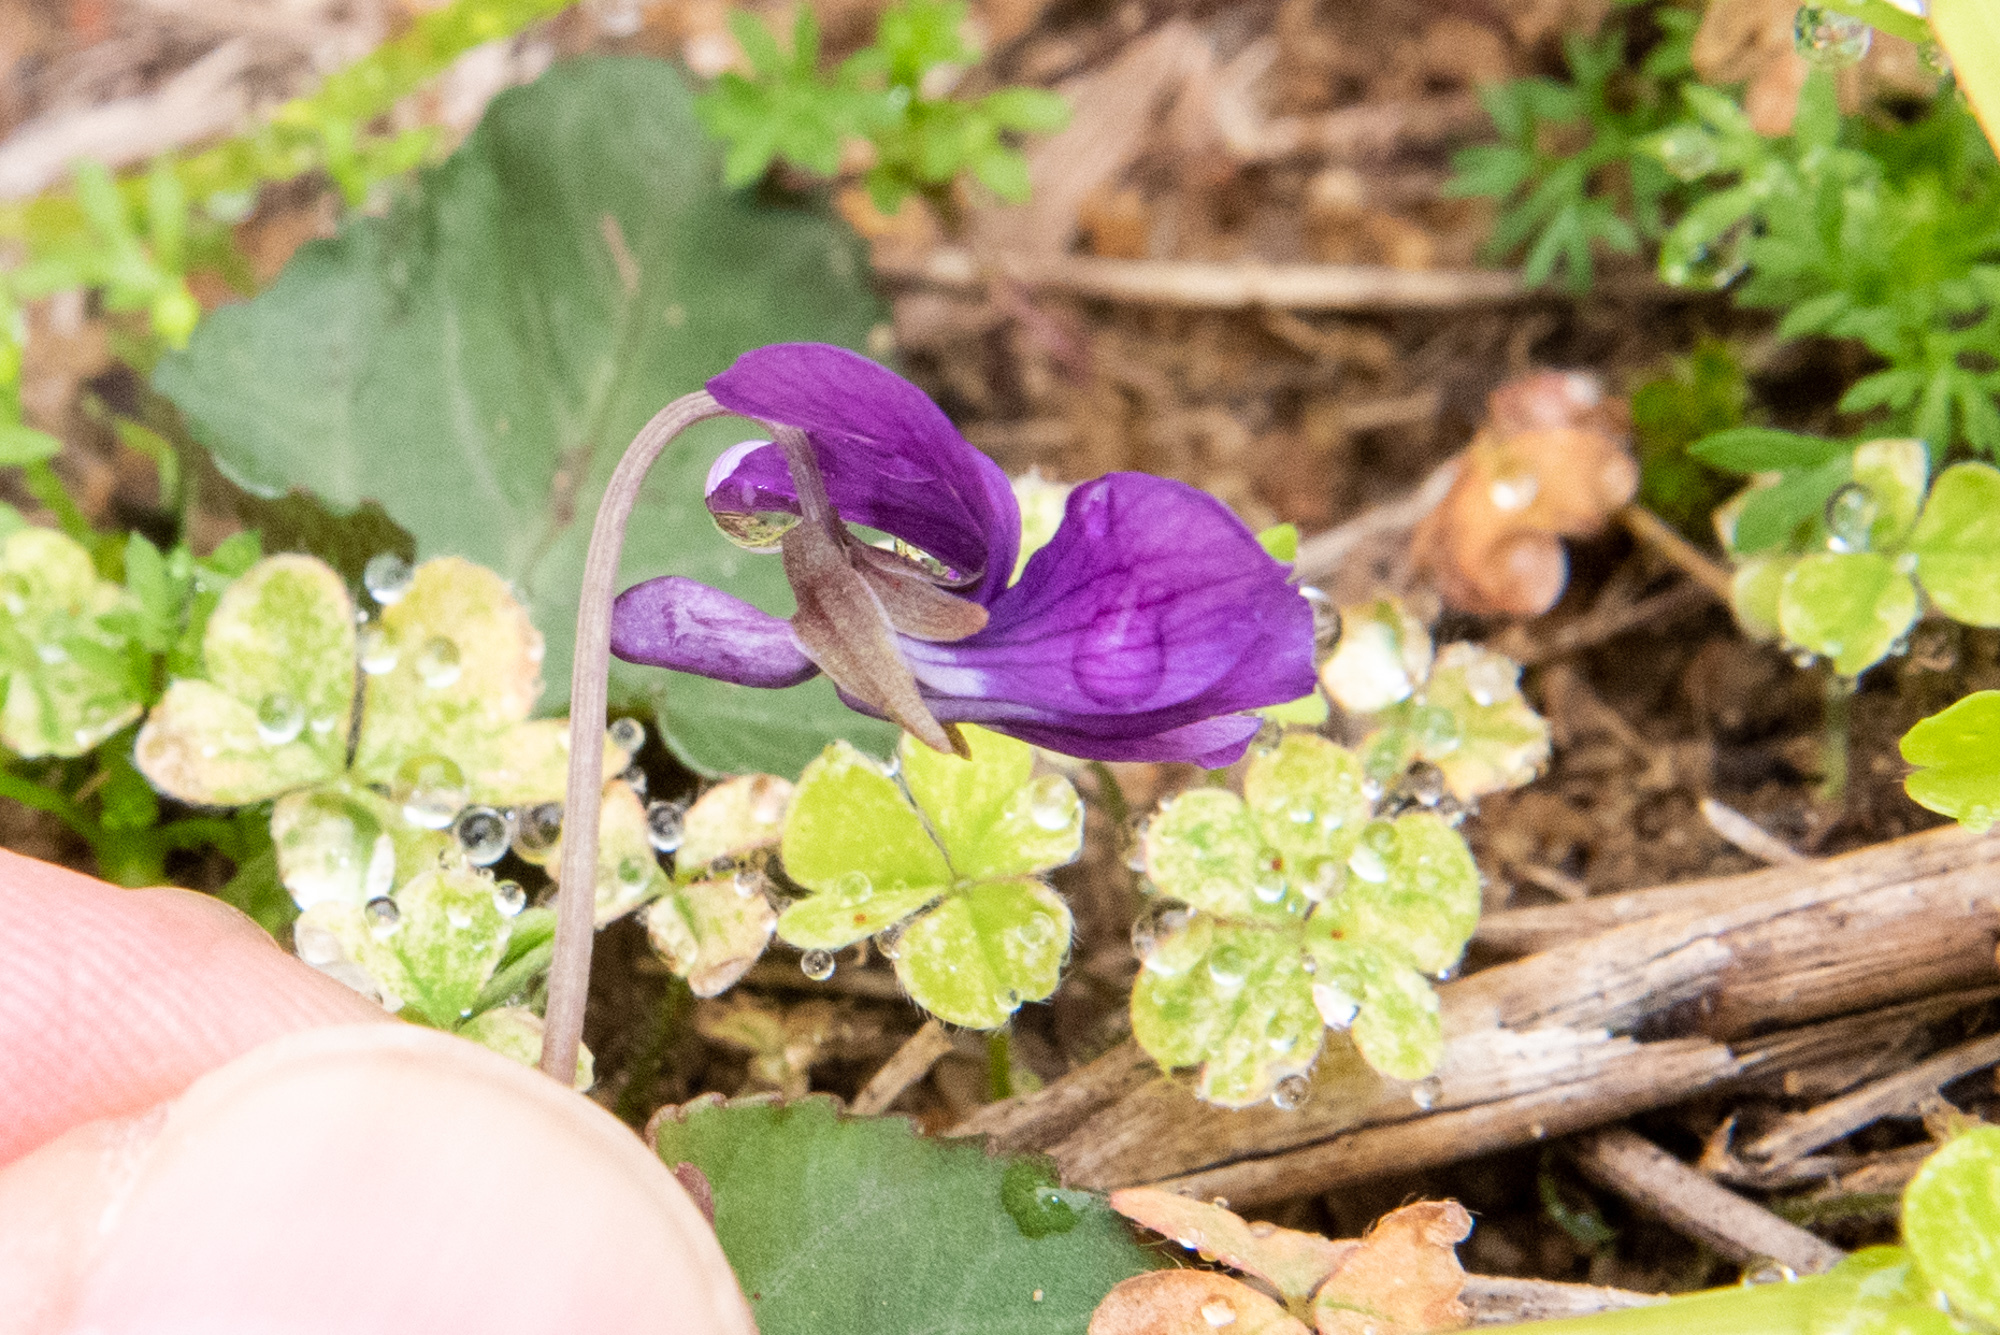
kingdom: Plantae
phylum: Tracheophyta
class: Magnoliopsida
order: Malpighiales
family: Violaceae
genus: Viola
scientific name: Viola inconspicua
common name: Long sepal violet
